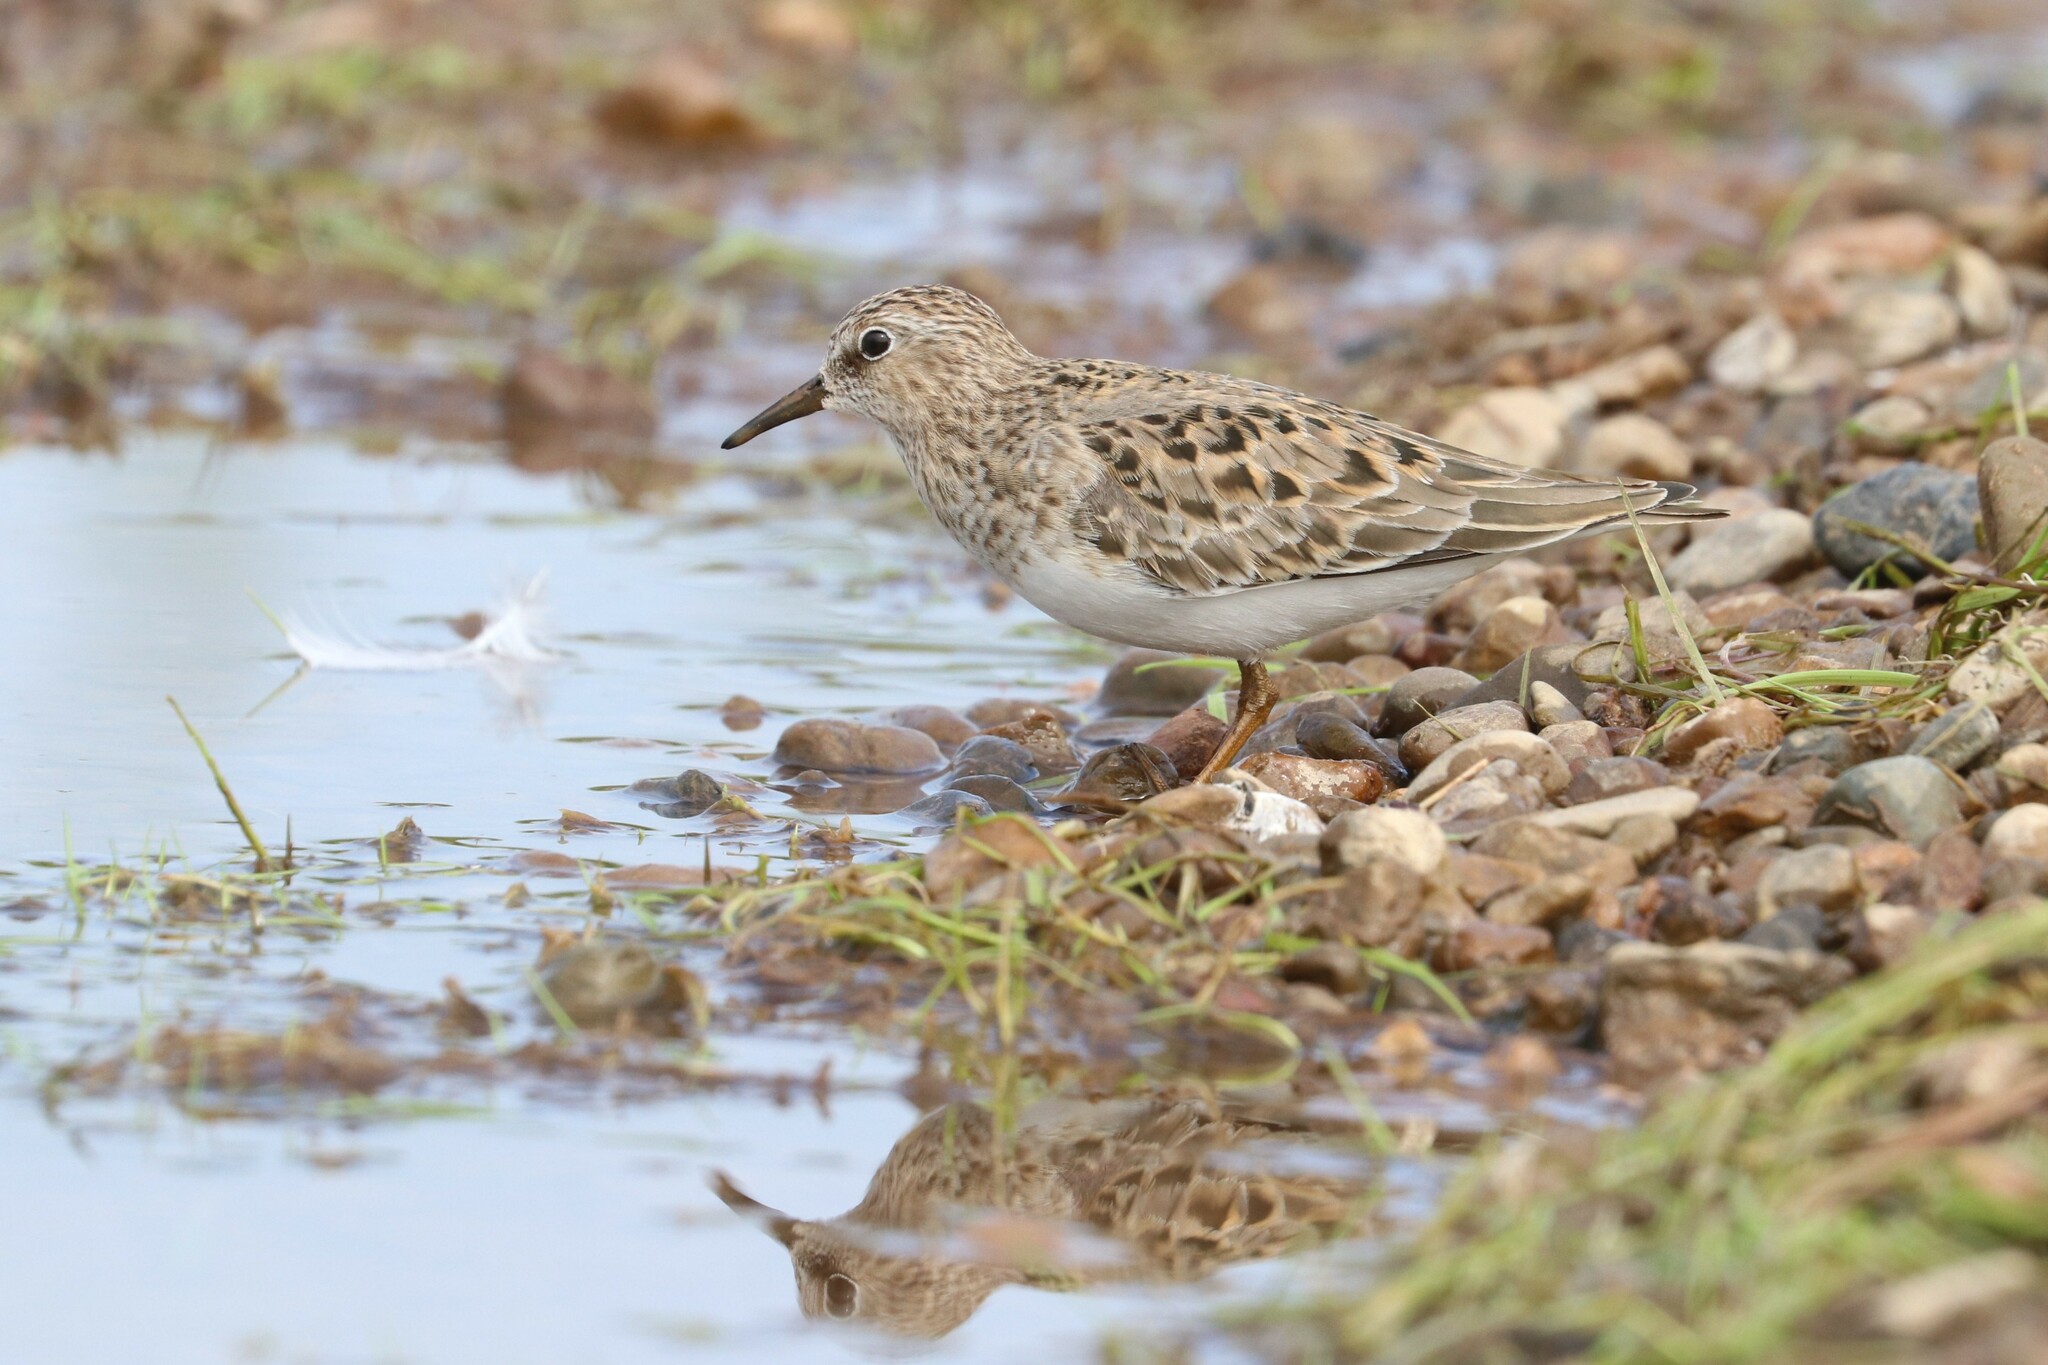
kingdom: Animalia
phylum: Chordata
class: Aves
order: Charadriiformes
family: Scolopacidae
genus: Calidris
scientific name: Calidris temminckii
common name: Temminck's stint
